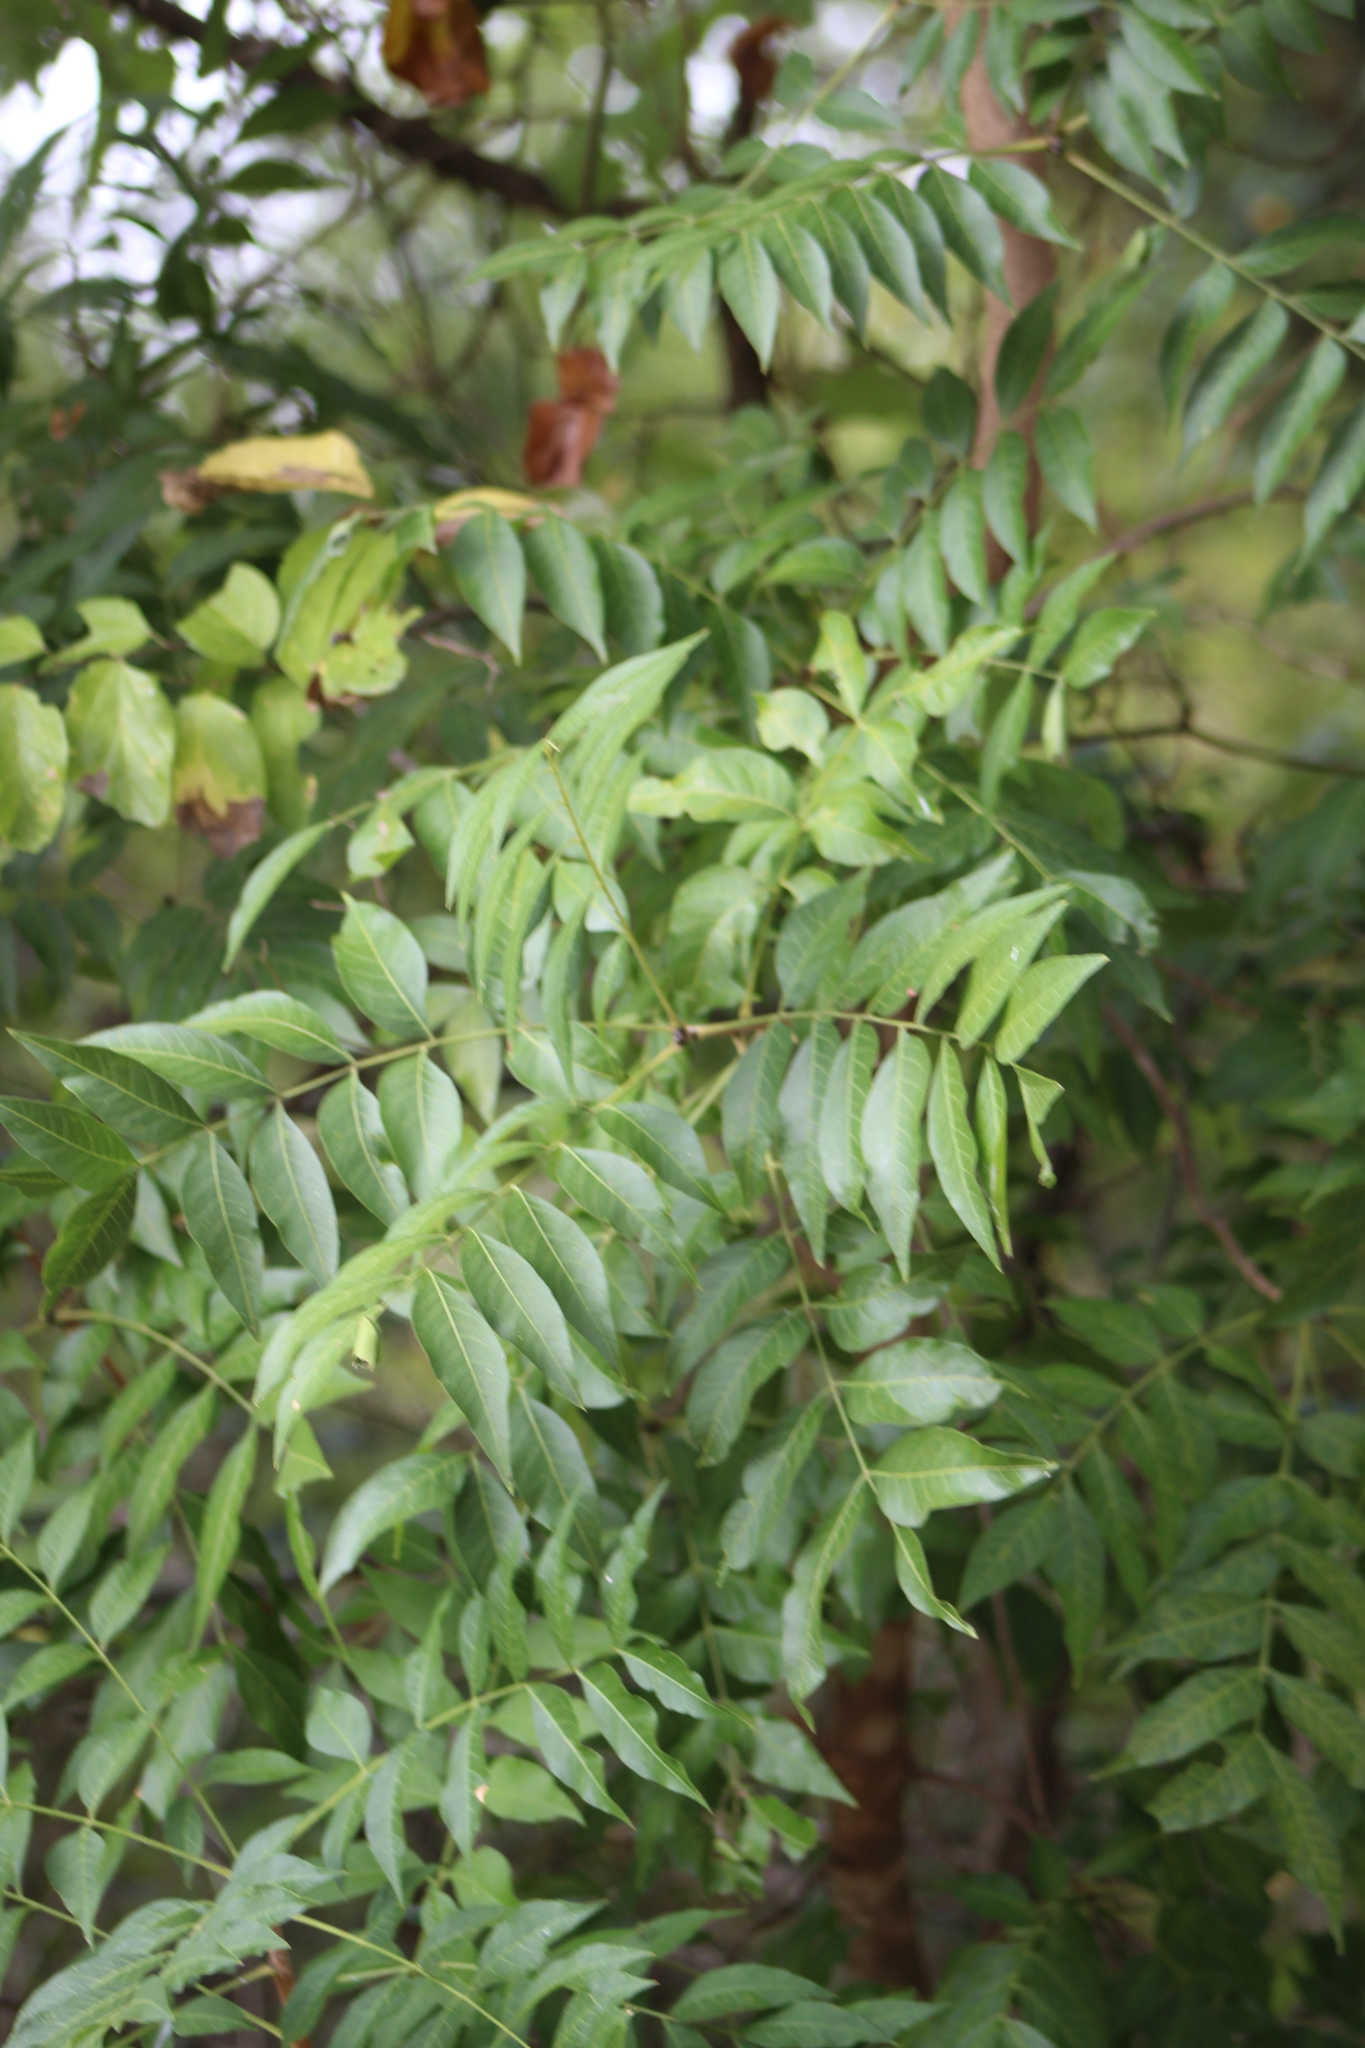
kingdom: Plantae
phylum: Tracheophyta
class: Magnoliopsida
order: Sapindales
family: Anacardiaceae
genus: Pistacia
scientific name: Pistacia chinensis
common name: Chinese pistache
